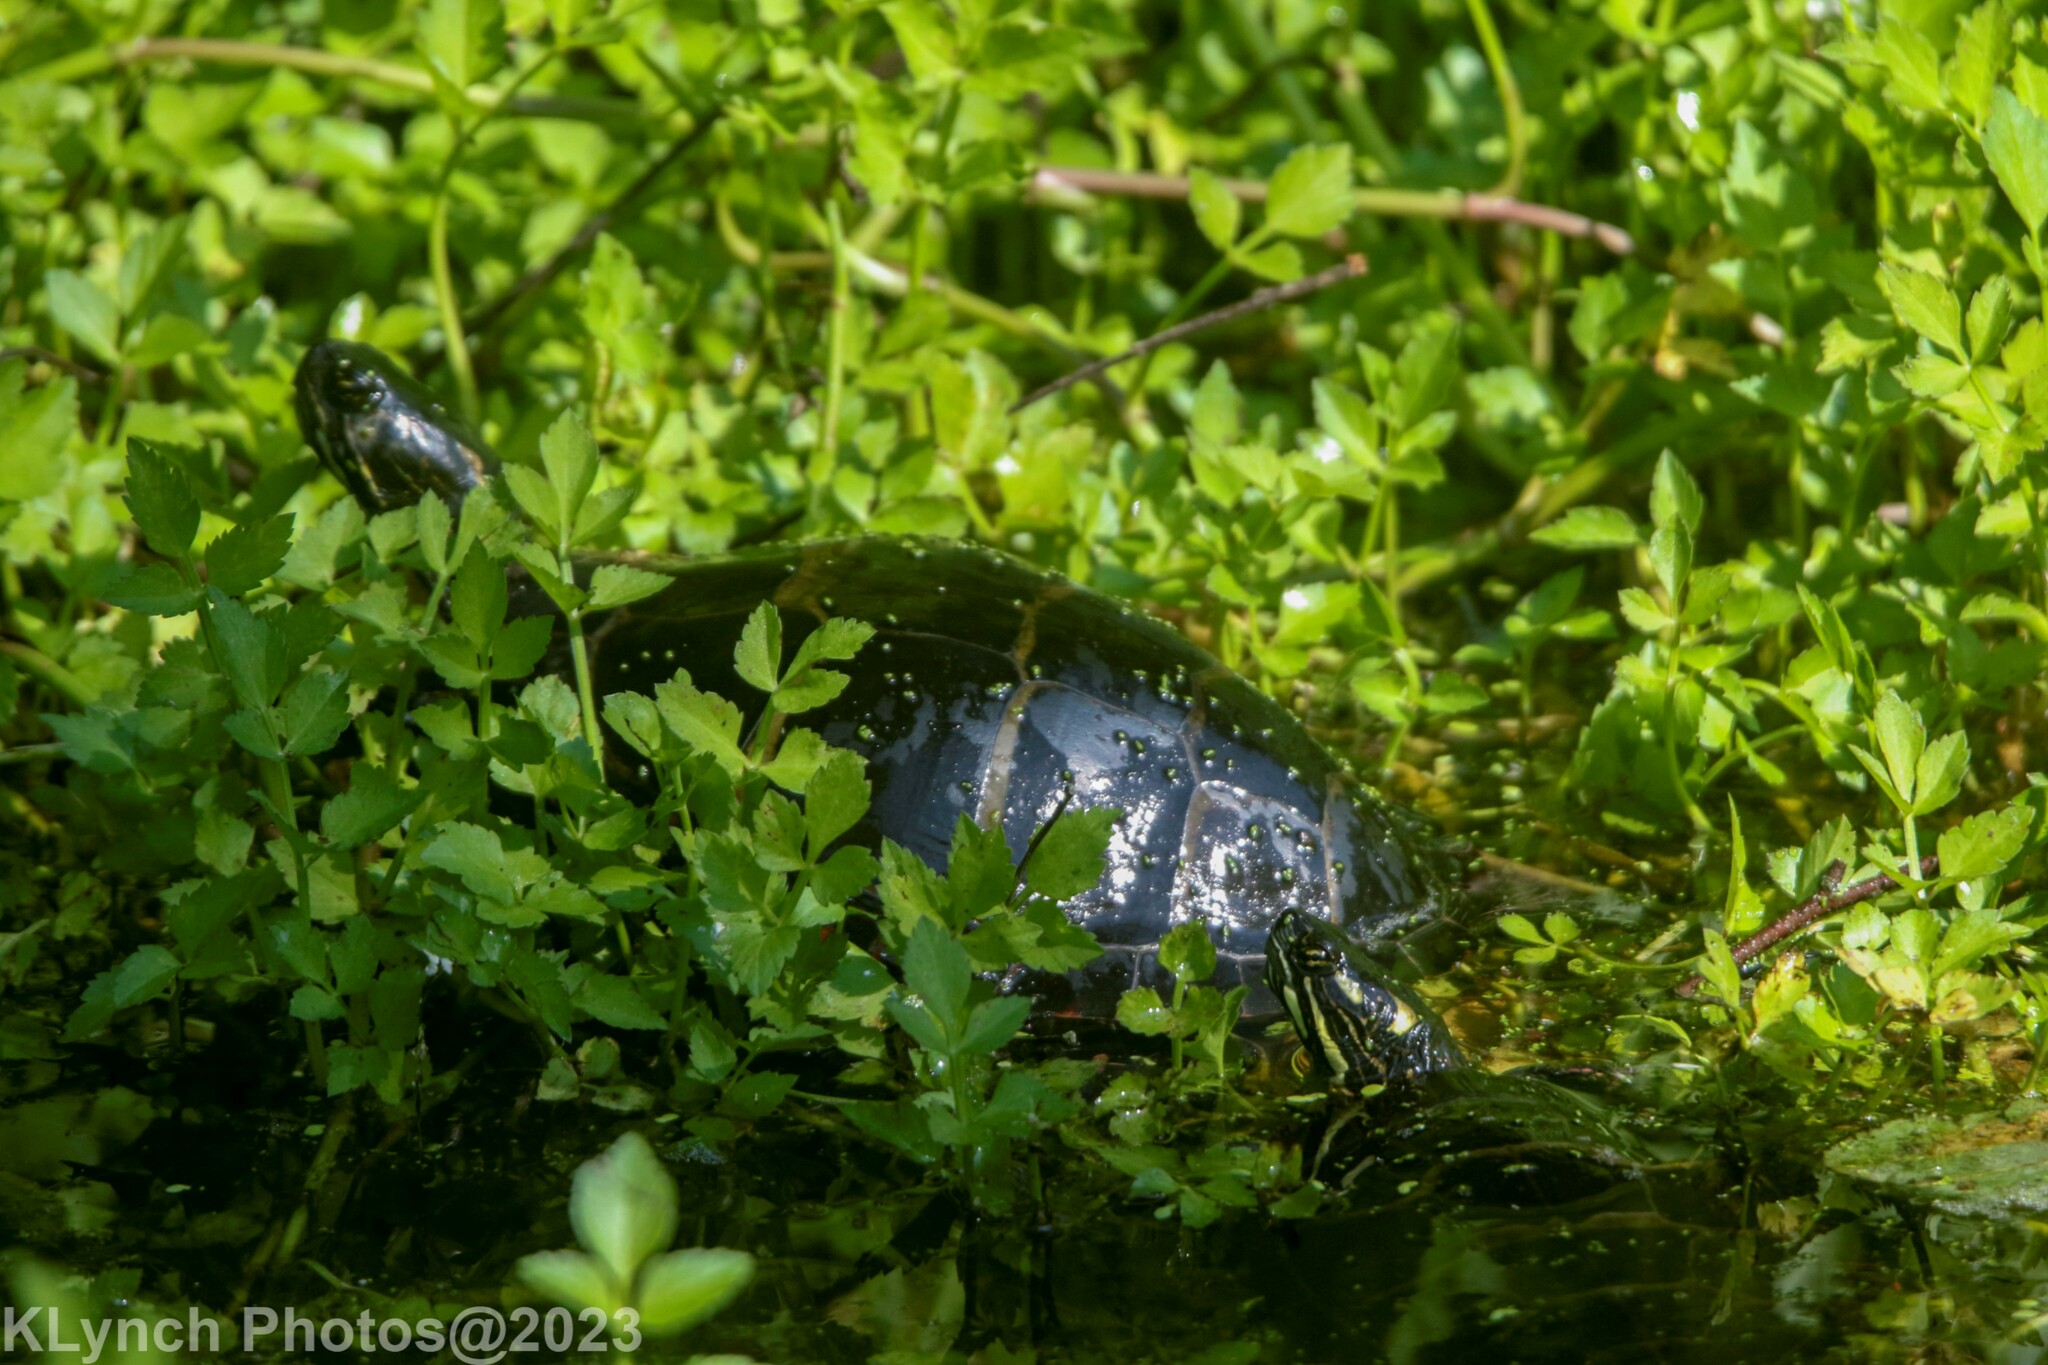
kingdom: Animalia
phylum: Chordata
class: Testudines
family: Emydidae
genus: Chrysemys
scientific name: Chrysemys picta
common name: Painted turtle
